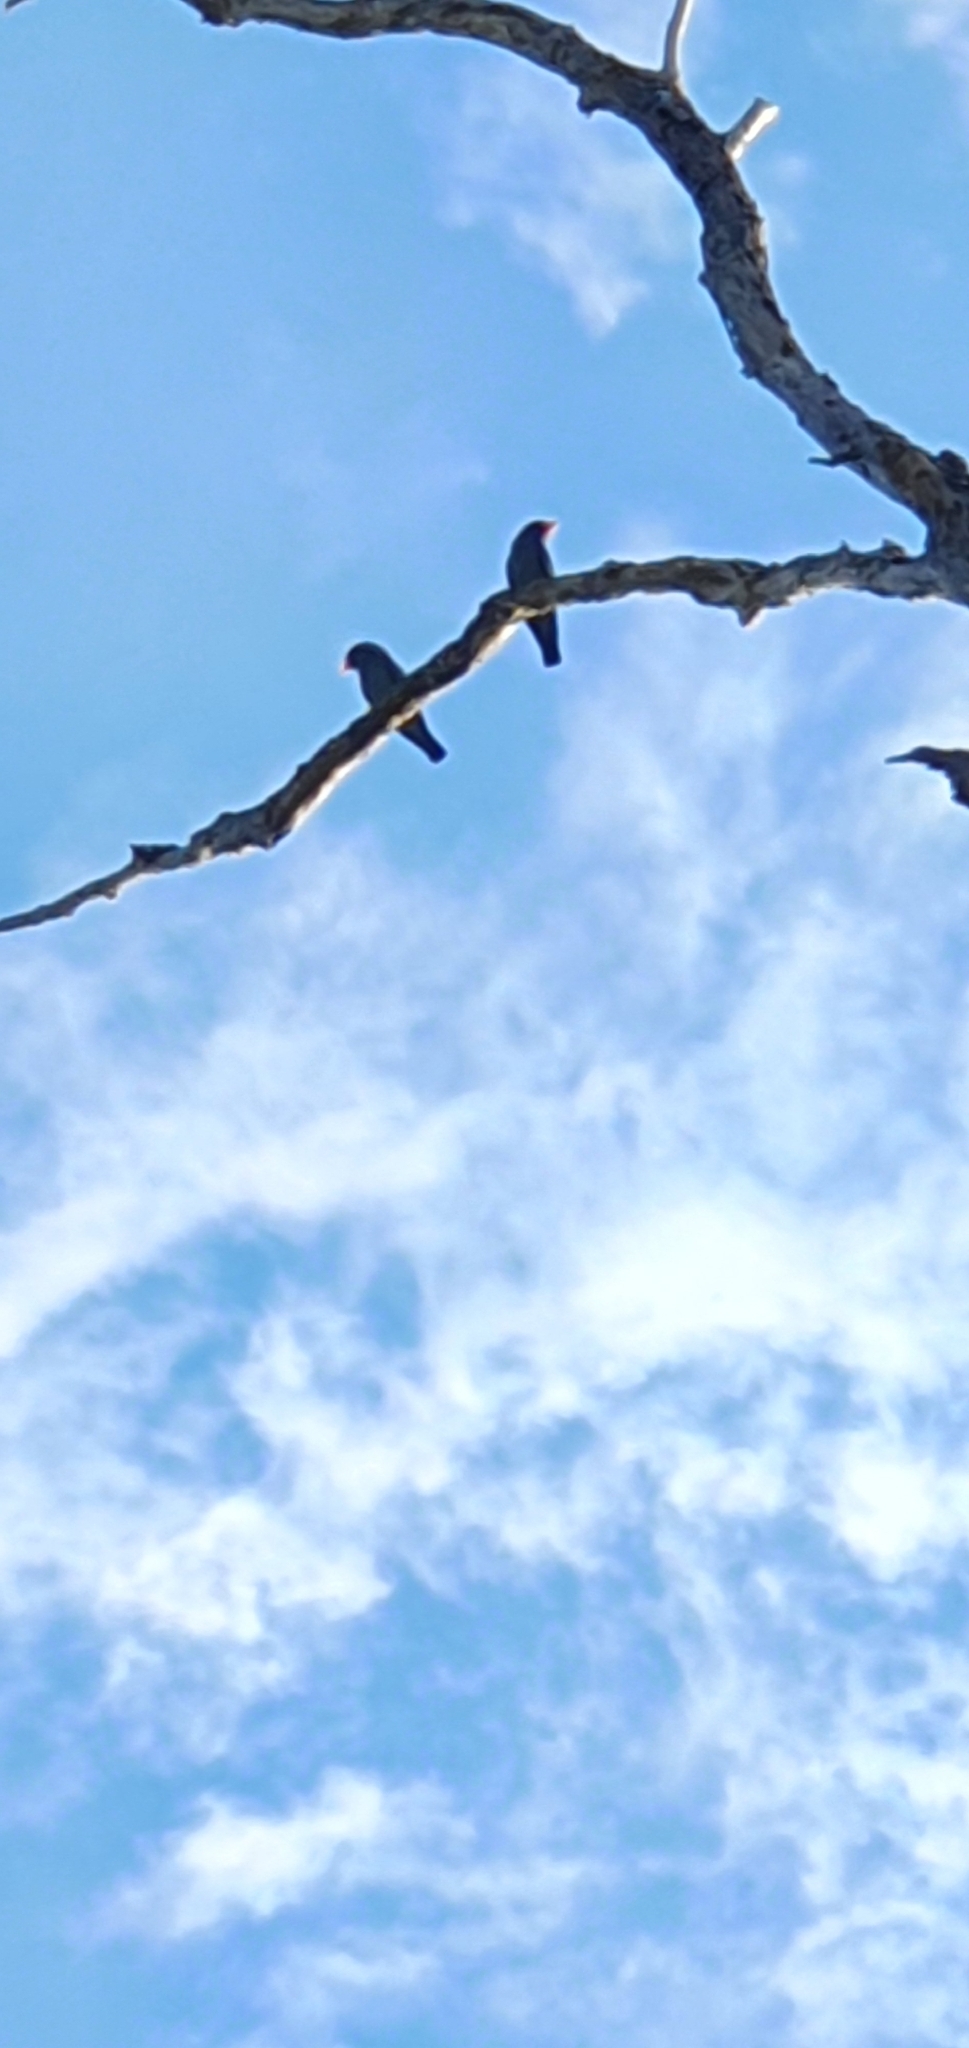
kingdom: Animalia
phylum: Chordata
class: Aves
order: Coraciiformes
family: Coraciidae
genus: Eurystomus
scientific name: Eurystomus orientalis
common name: Oriental dollarbird
